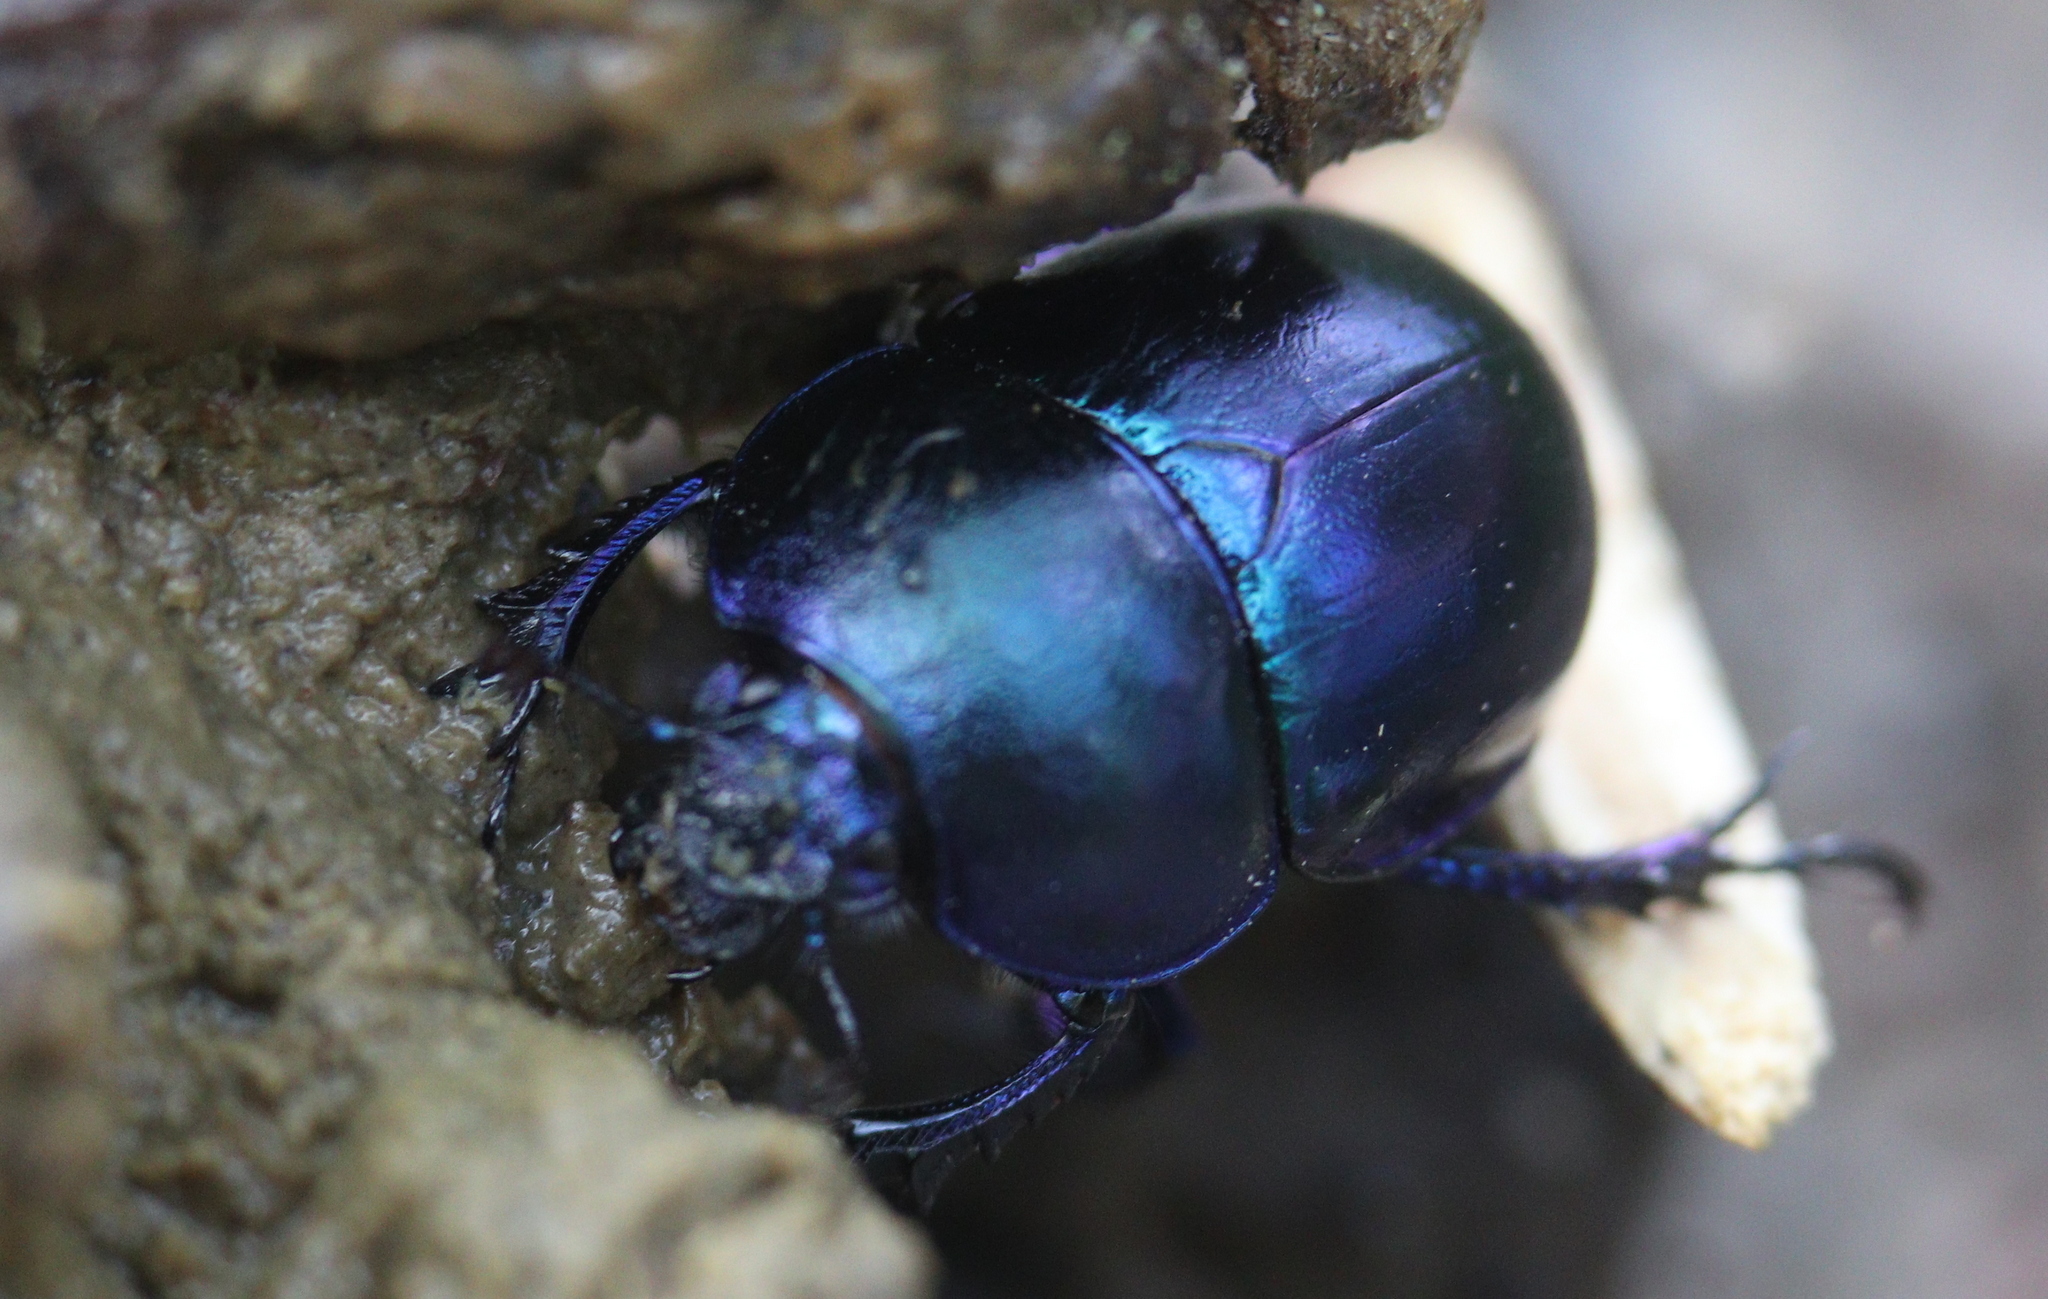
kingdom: Animalia
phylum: Arthropoda
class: Insecta
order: Coleoptera
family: Geotrupidae
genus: Trypocopris
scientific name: Trypocopris vernalis
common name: Spring dumbledor
